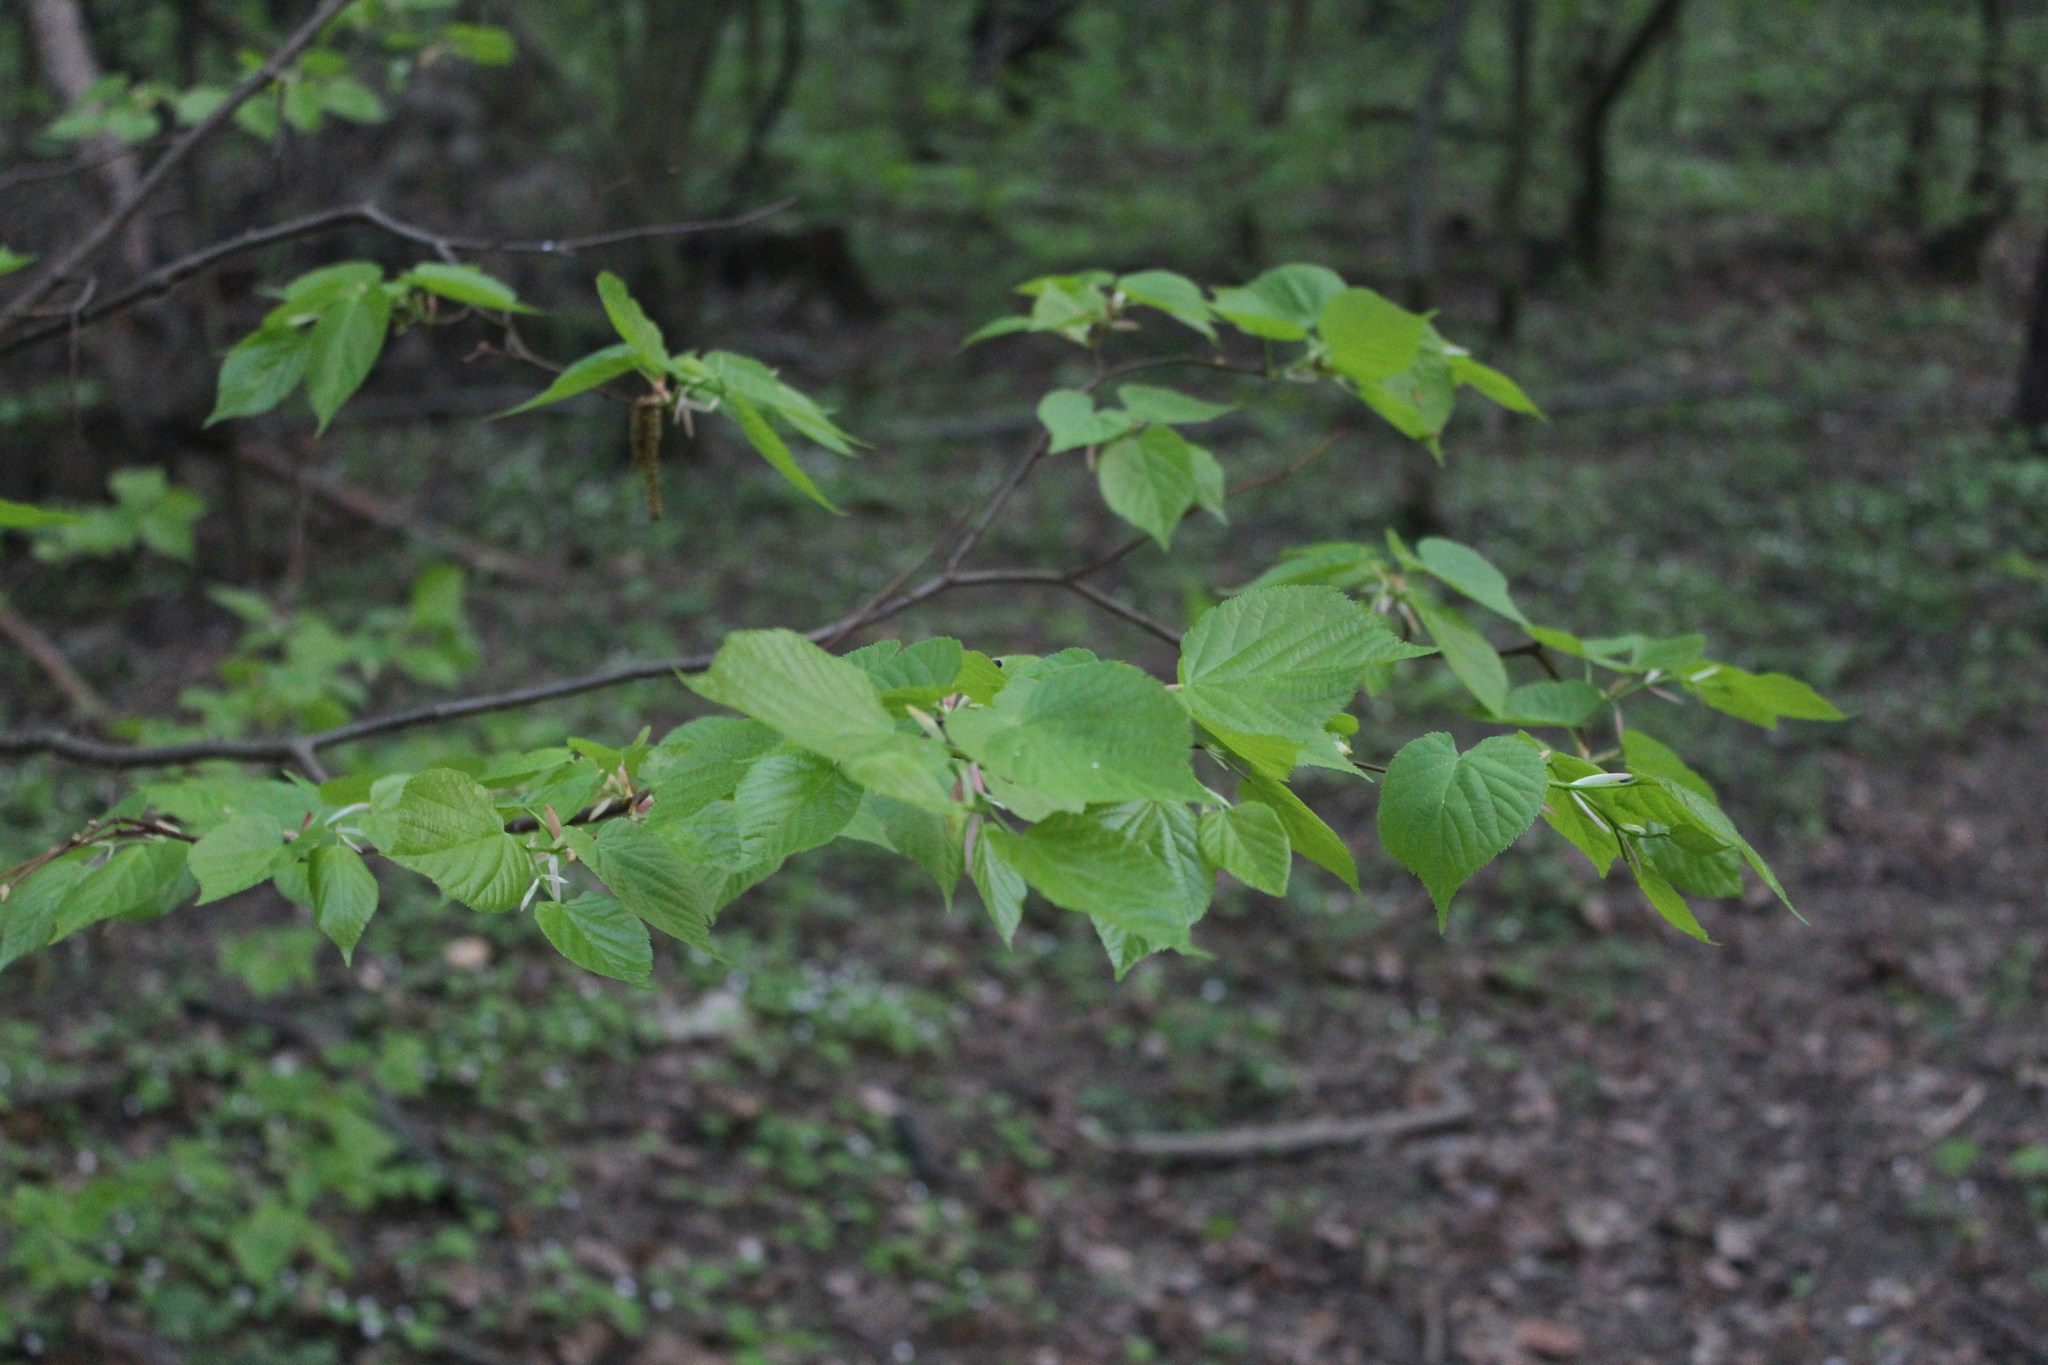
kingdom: Plantae
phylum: Tracheophyta
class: Magnoliopsida
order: Malvales
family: Malvaceae
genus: Tilia
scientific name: Tilia cordata
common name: Small-leaved lime
